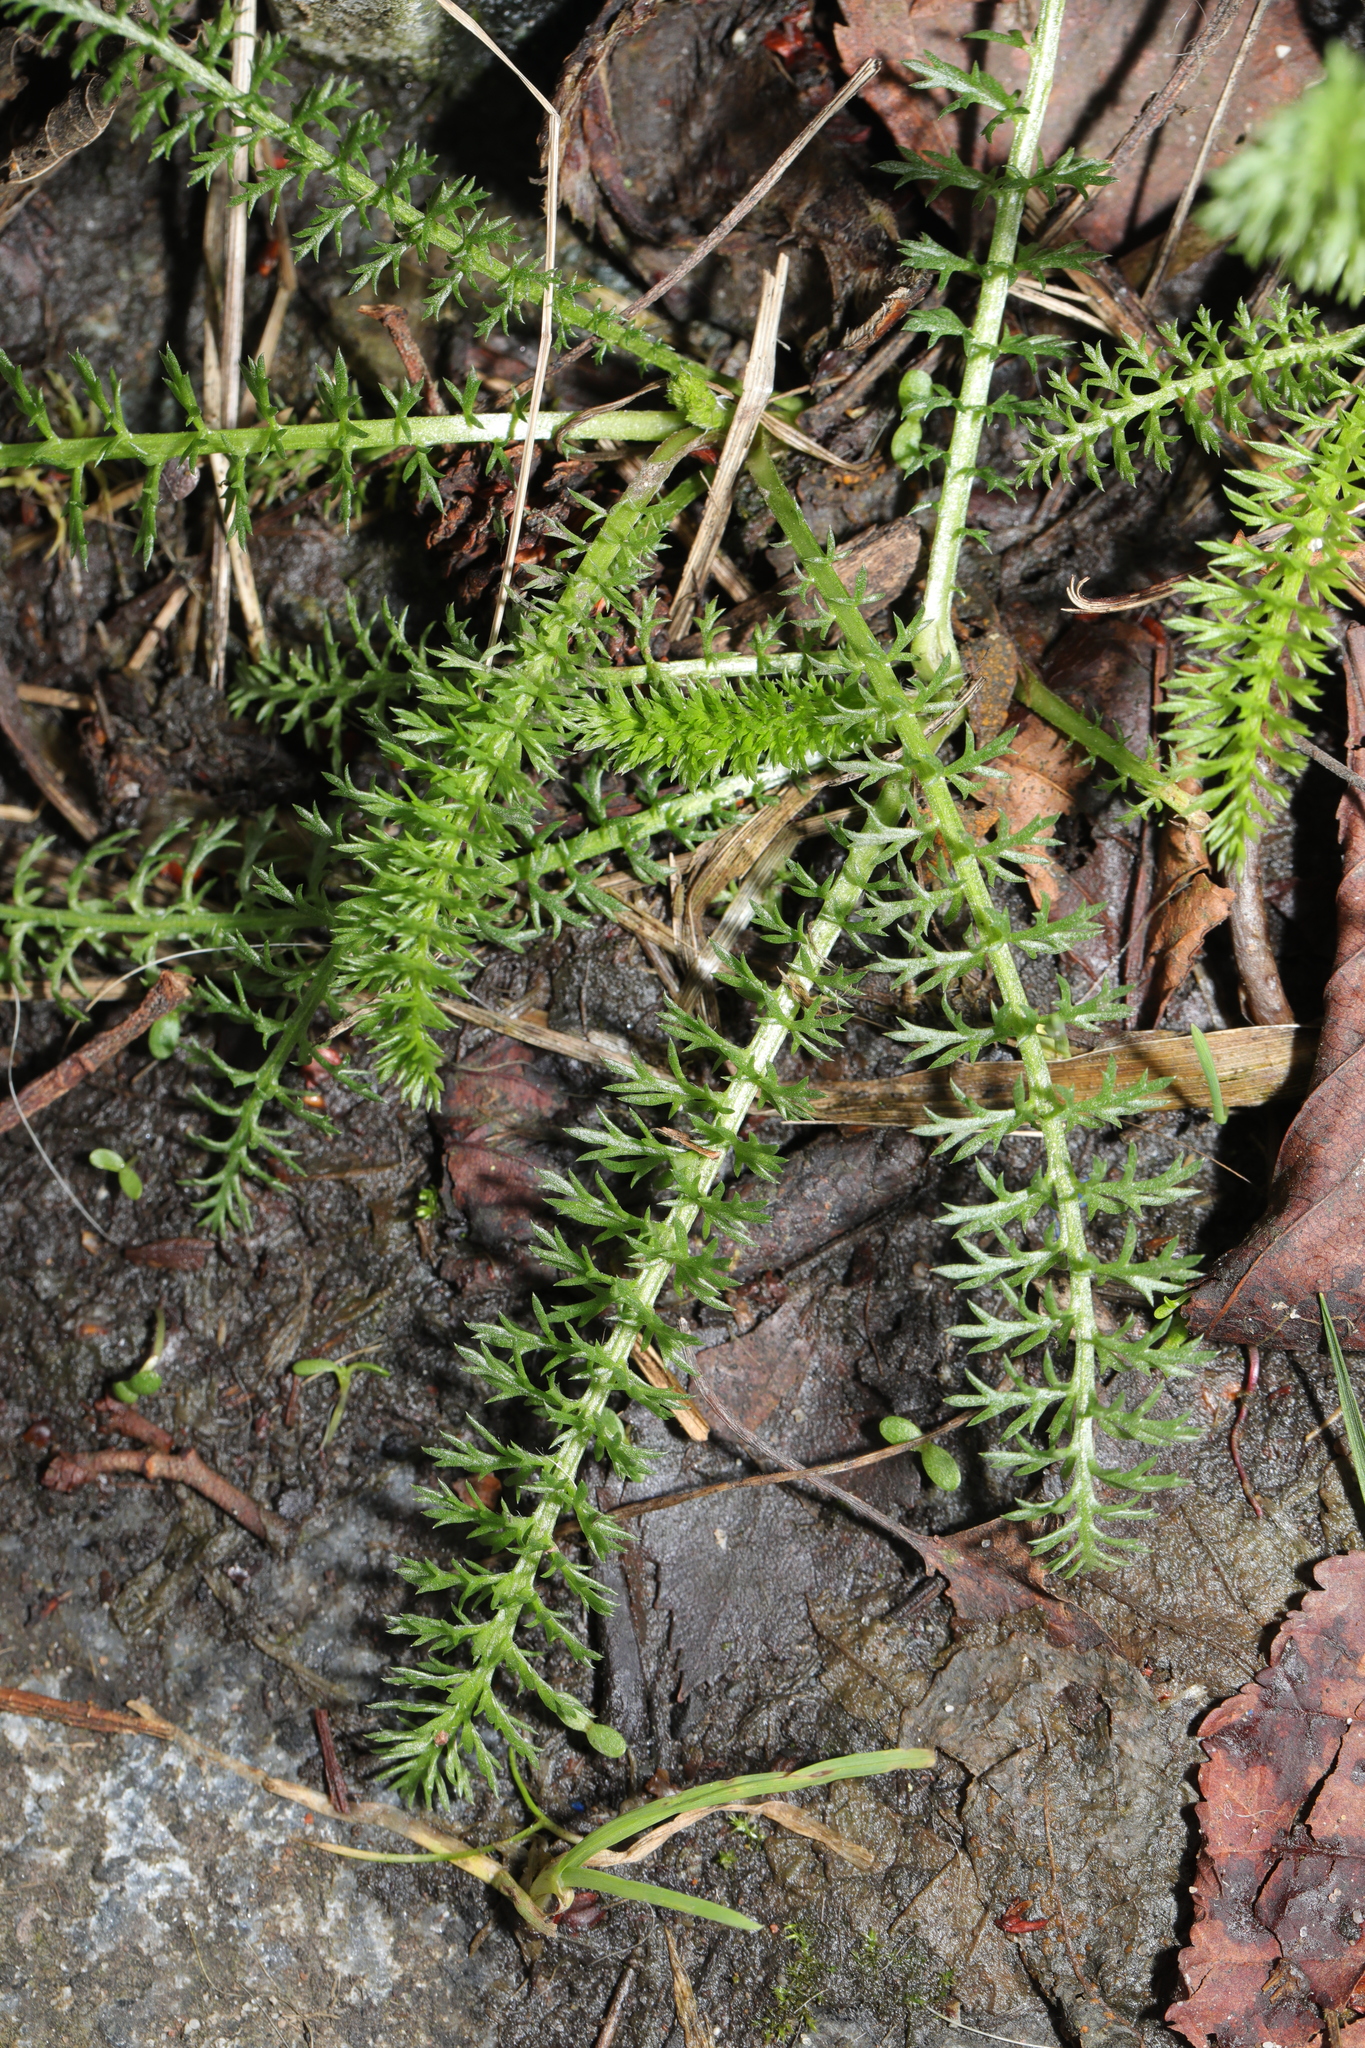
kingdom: Plantae
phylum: Tracheophyta
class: Magnoliopsida
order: Asterales
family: Asteraceae
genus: Achillea
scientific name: Achillea millefolium
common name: Yarrow
